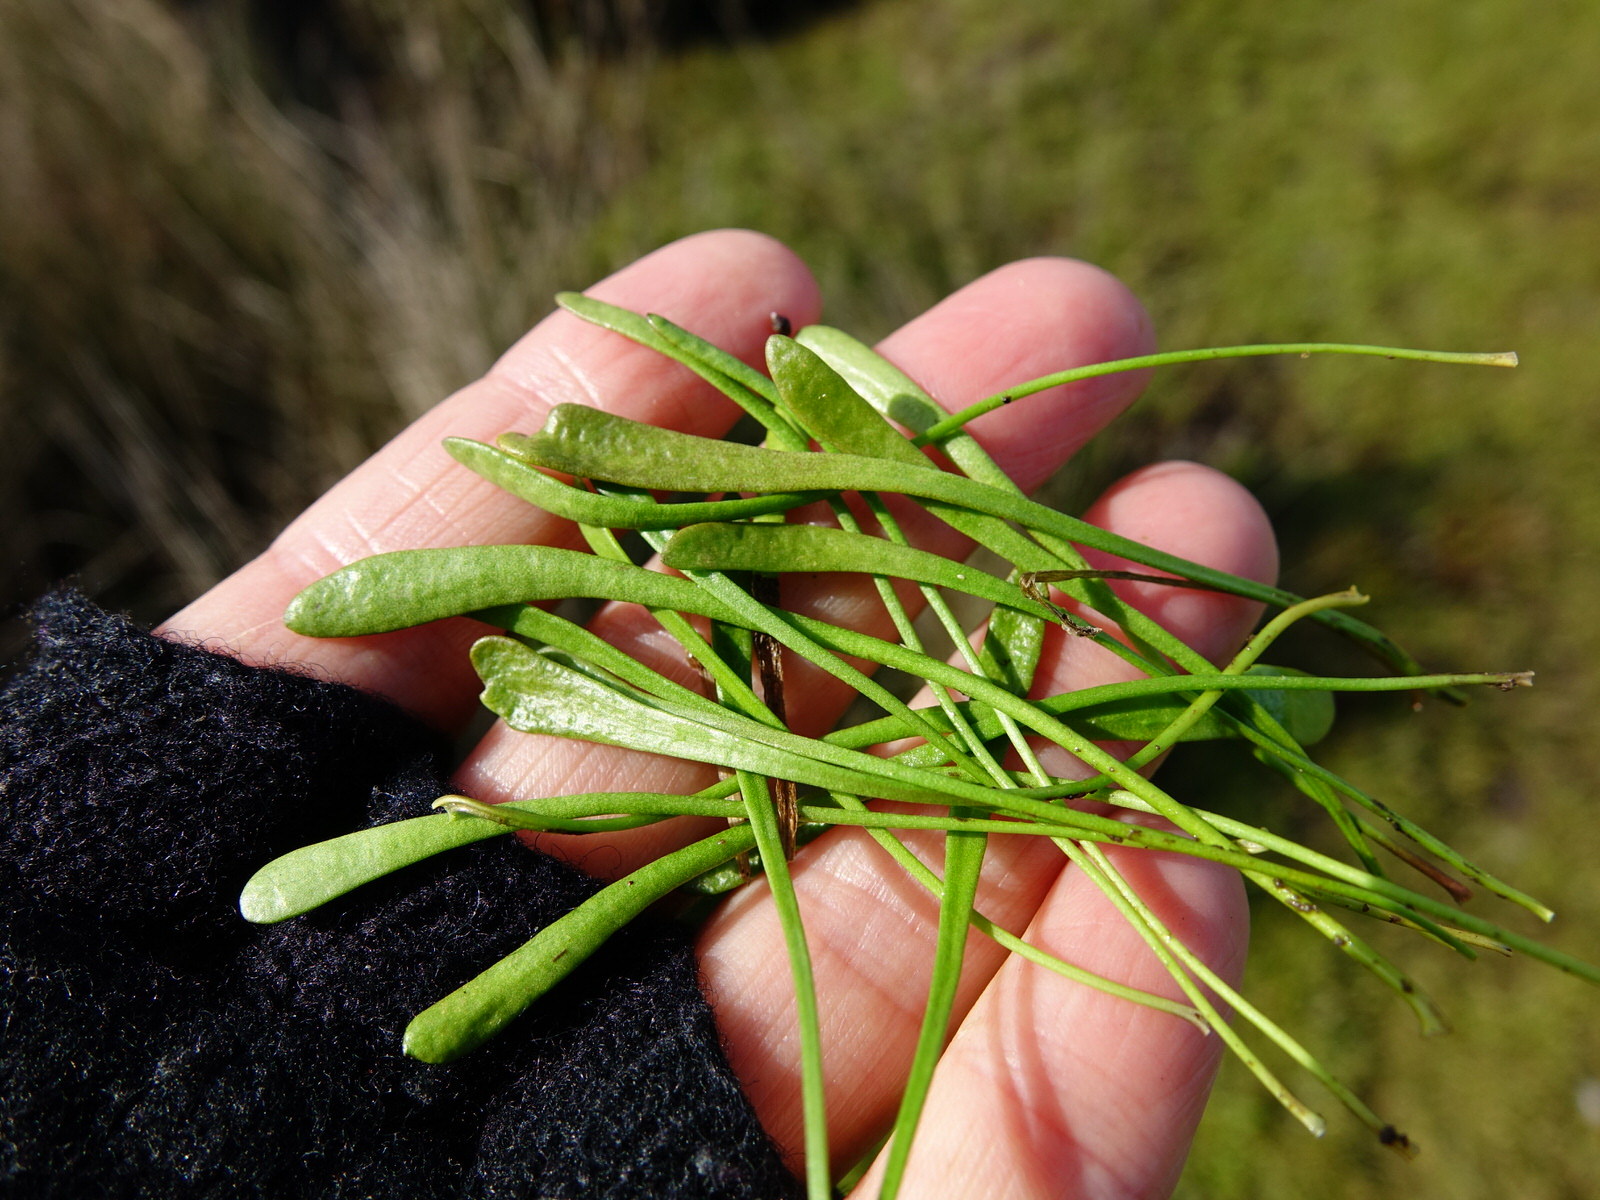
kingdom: Plantae
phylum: Tracheophyta
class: Magnoliopsida
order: Asterales
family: Goodeniaceae
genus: Goodenia
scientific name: Goodenia radicans
